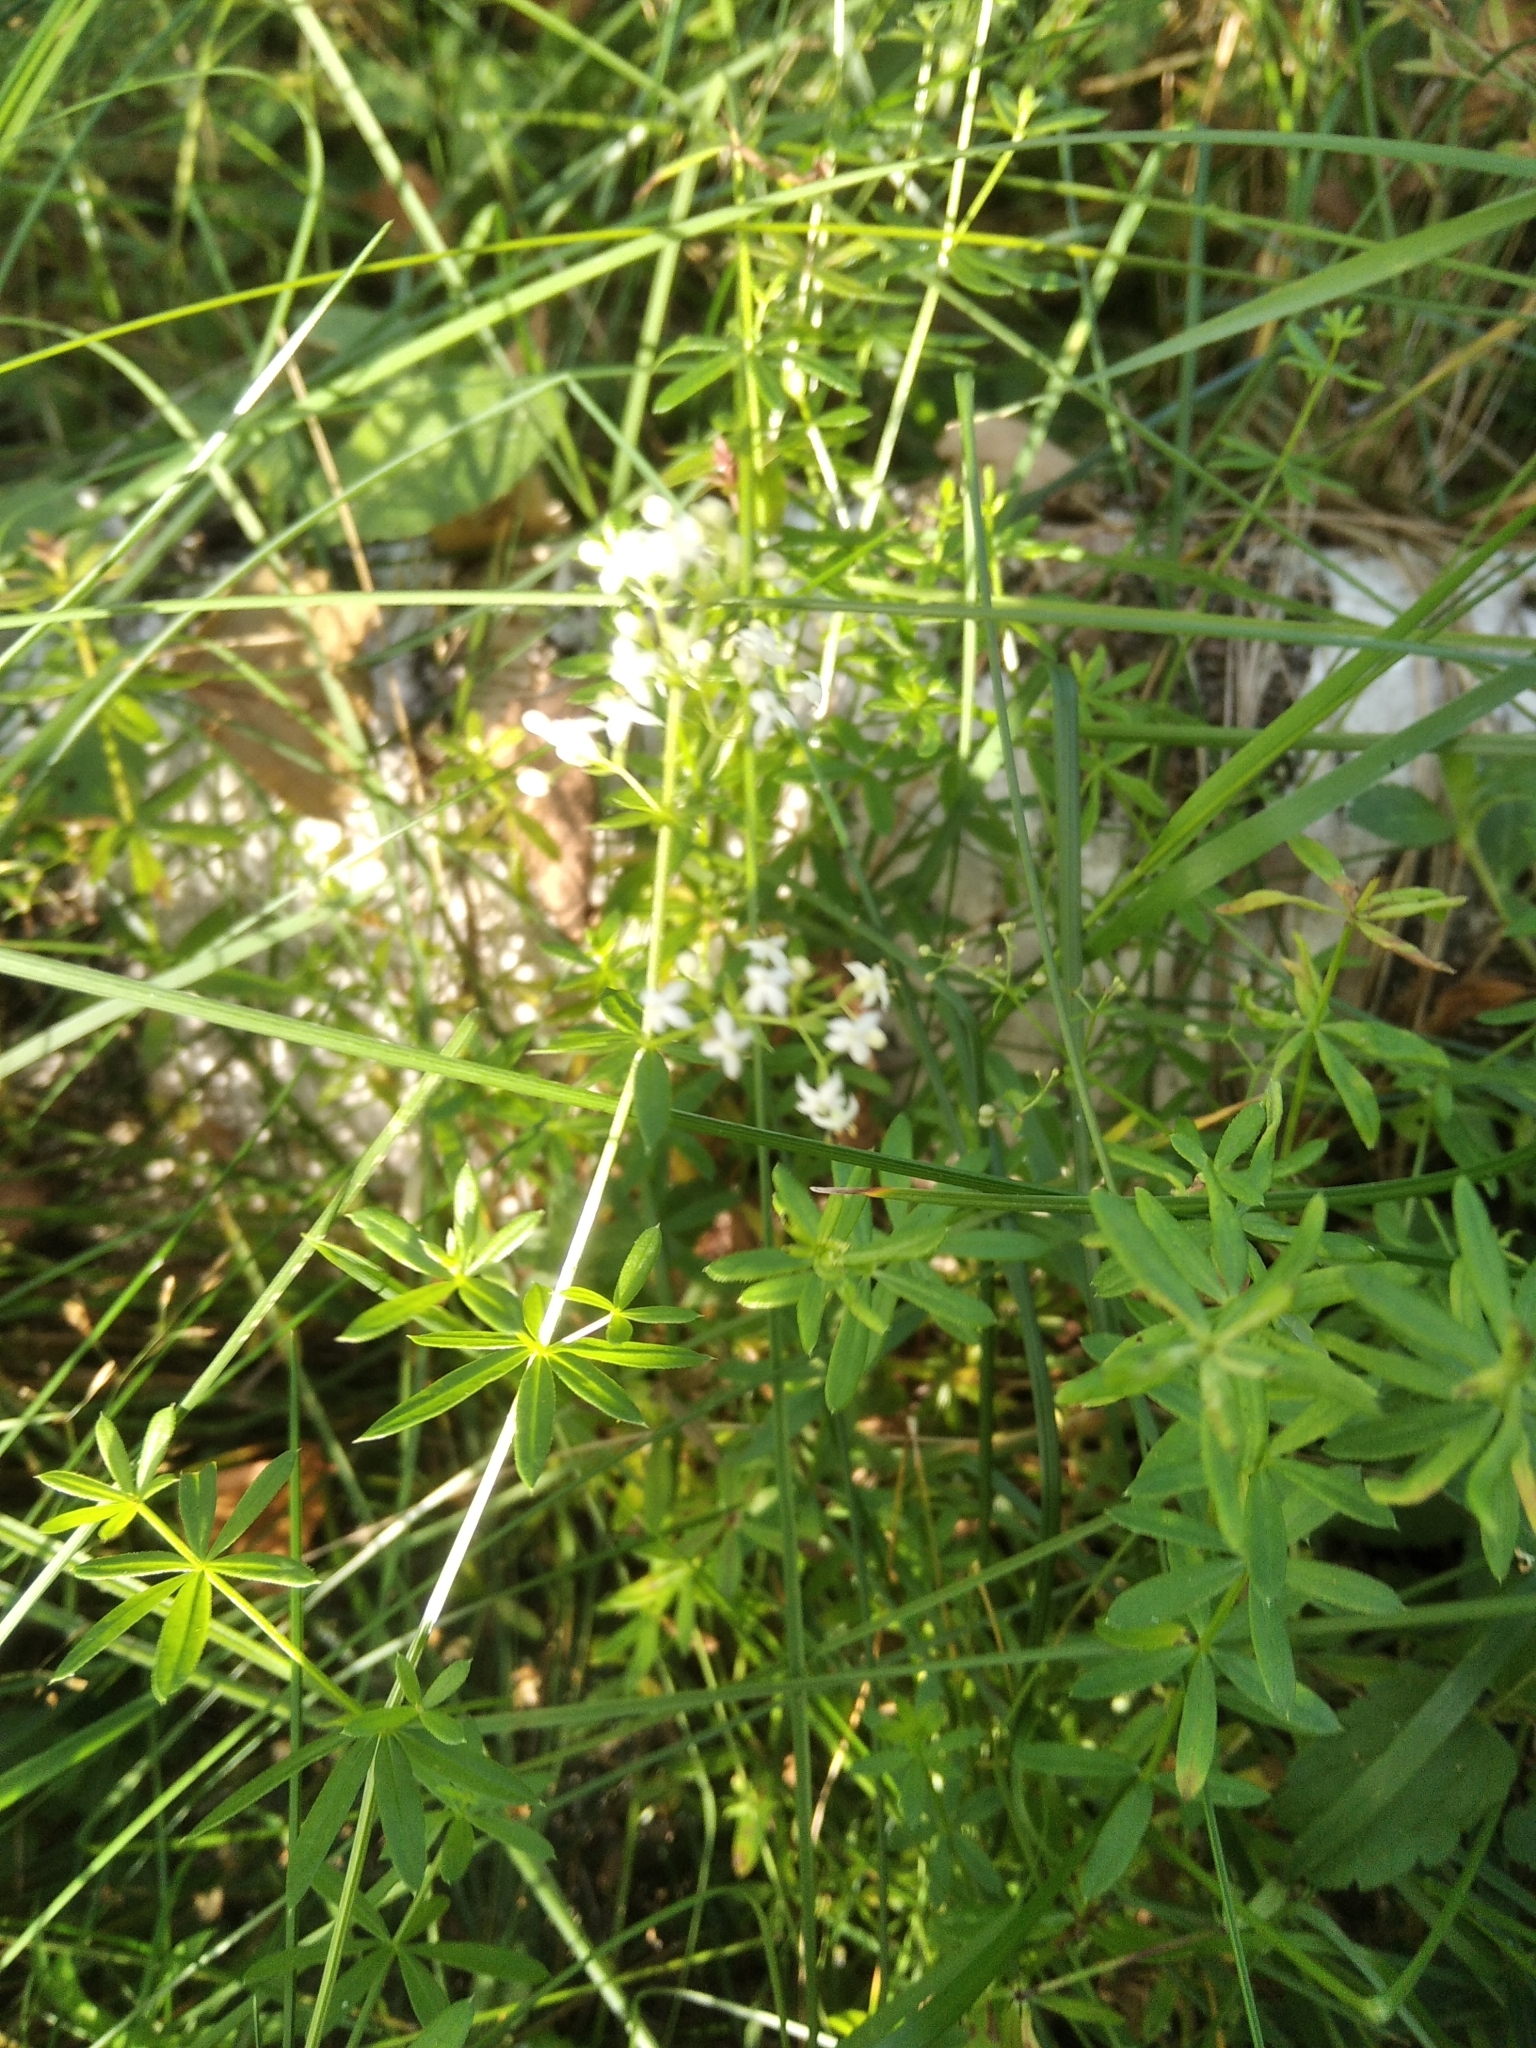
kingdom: Plantae
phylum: Tracheophyta
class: Magnoliopsida
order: Gentianales
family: Rubiaceae
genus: Galium
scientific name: Galium mollugo
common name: Hedge bedstraw
